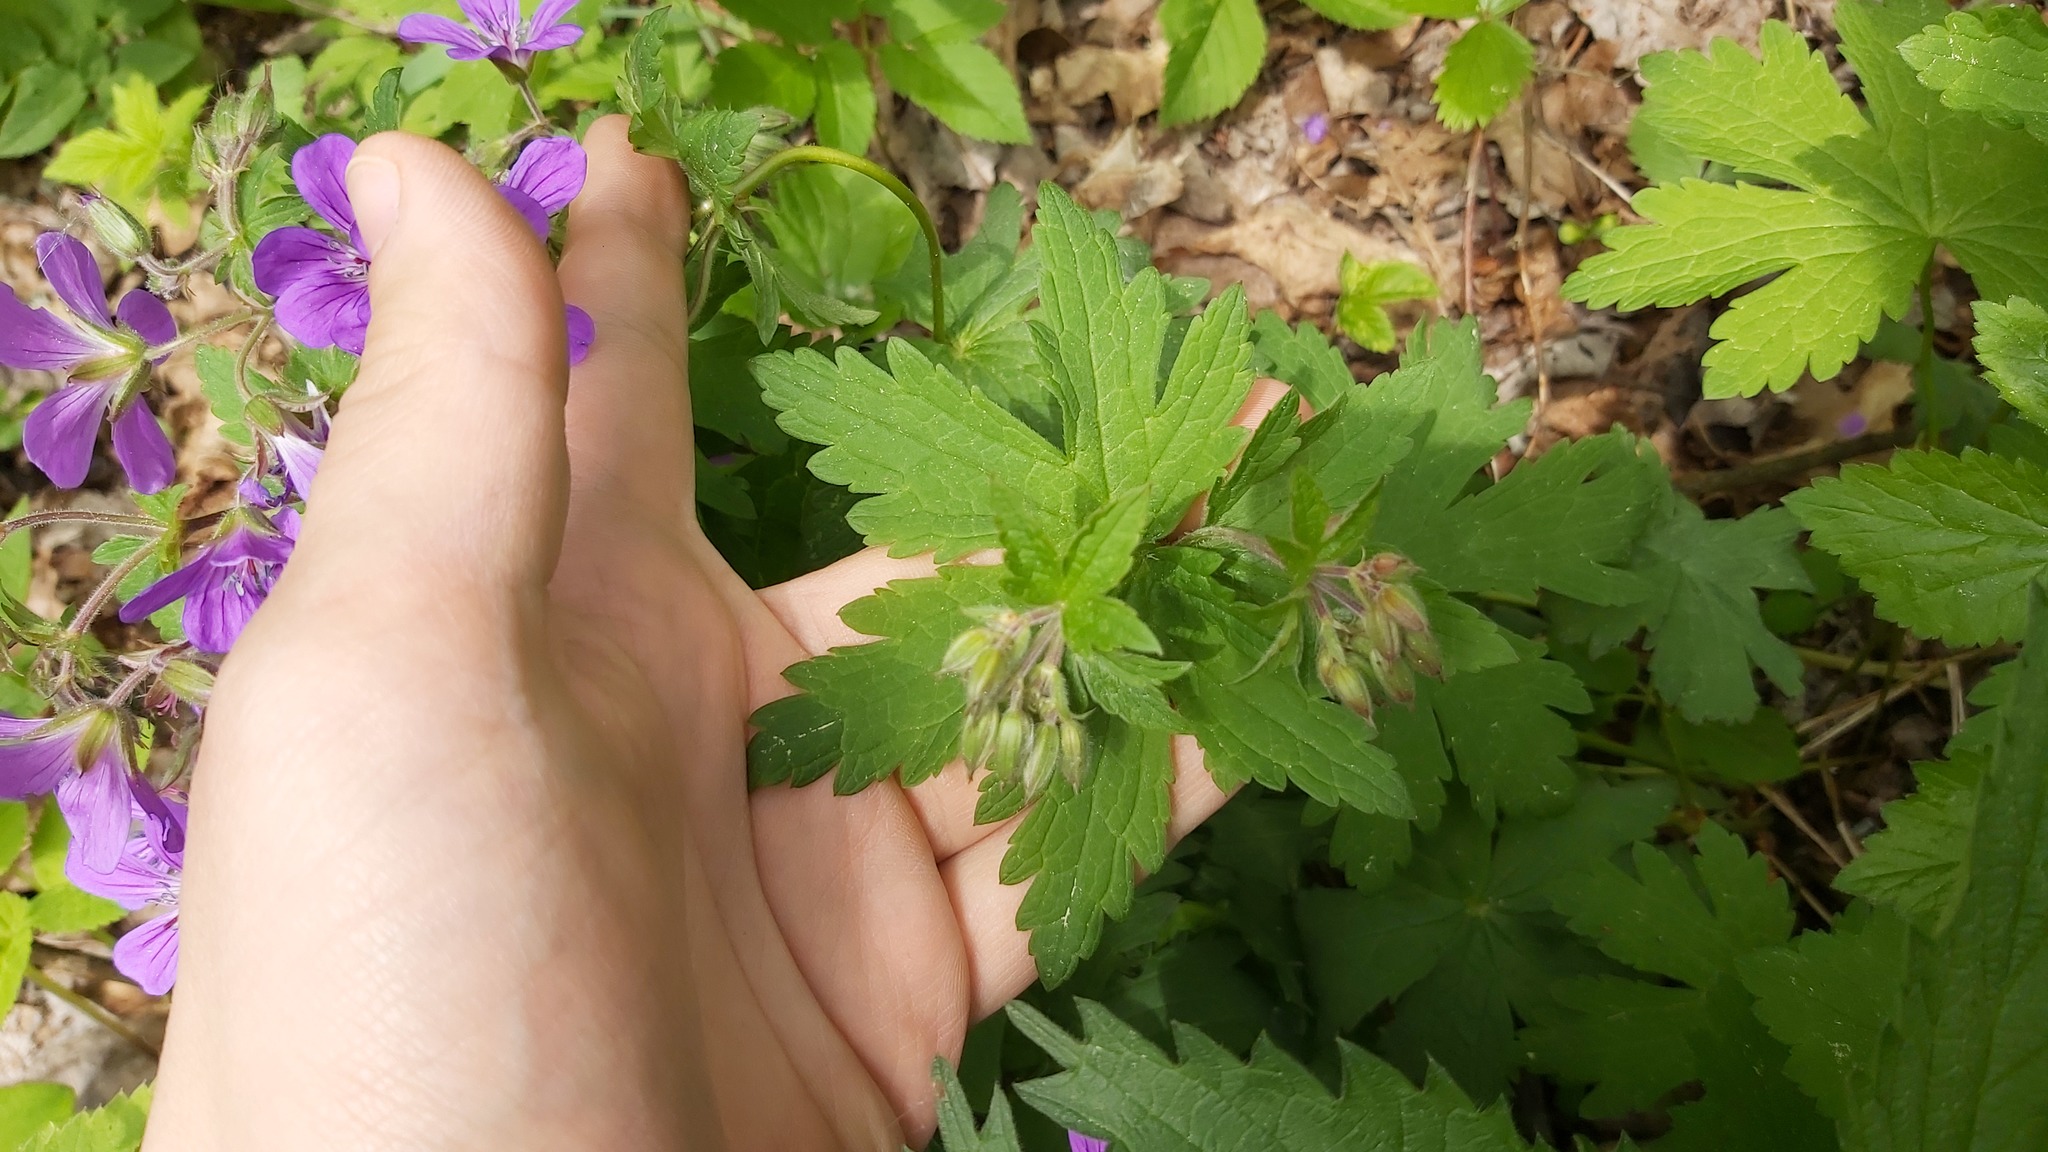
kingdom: Plantae
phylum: Tracheophyta
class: Magnoliopsida
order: Geraniales
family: Geraniaceae
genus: Geranium
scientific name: Geranium sylvaticum
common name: Wood crane's-bill
